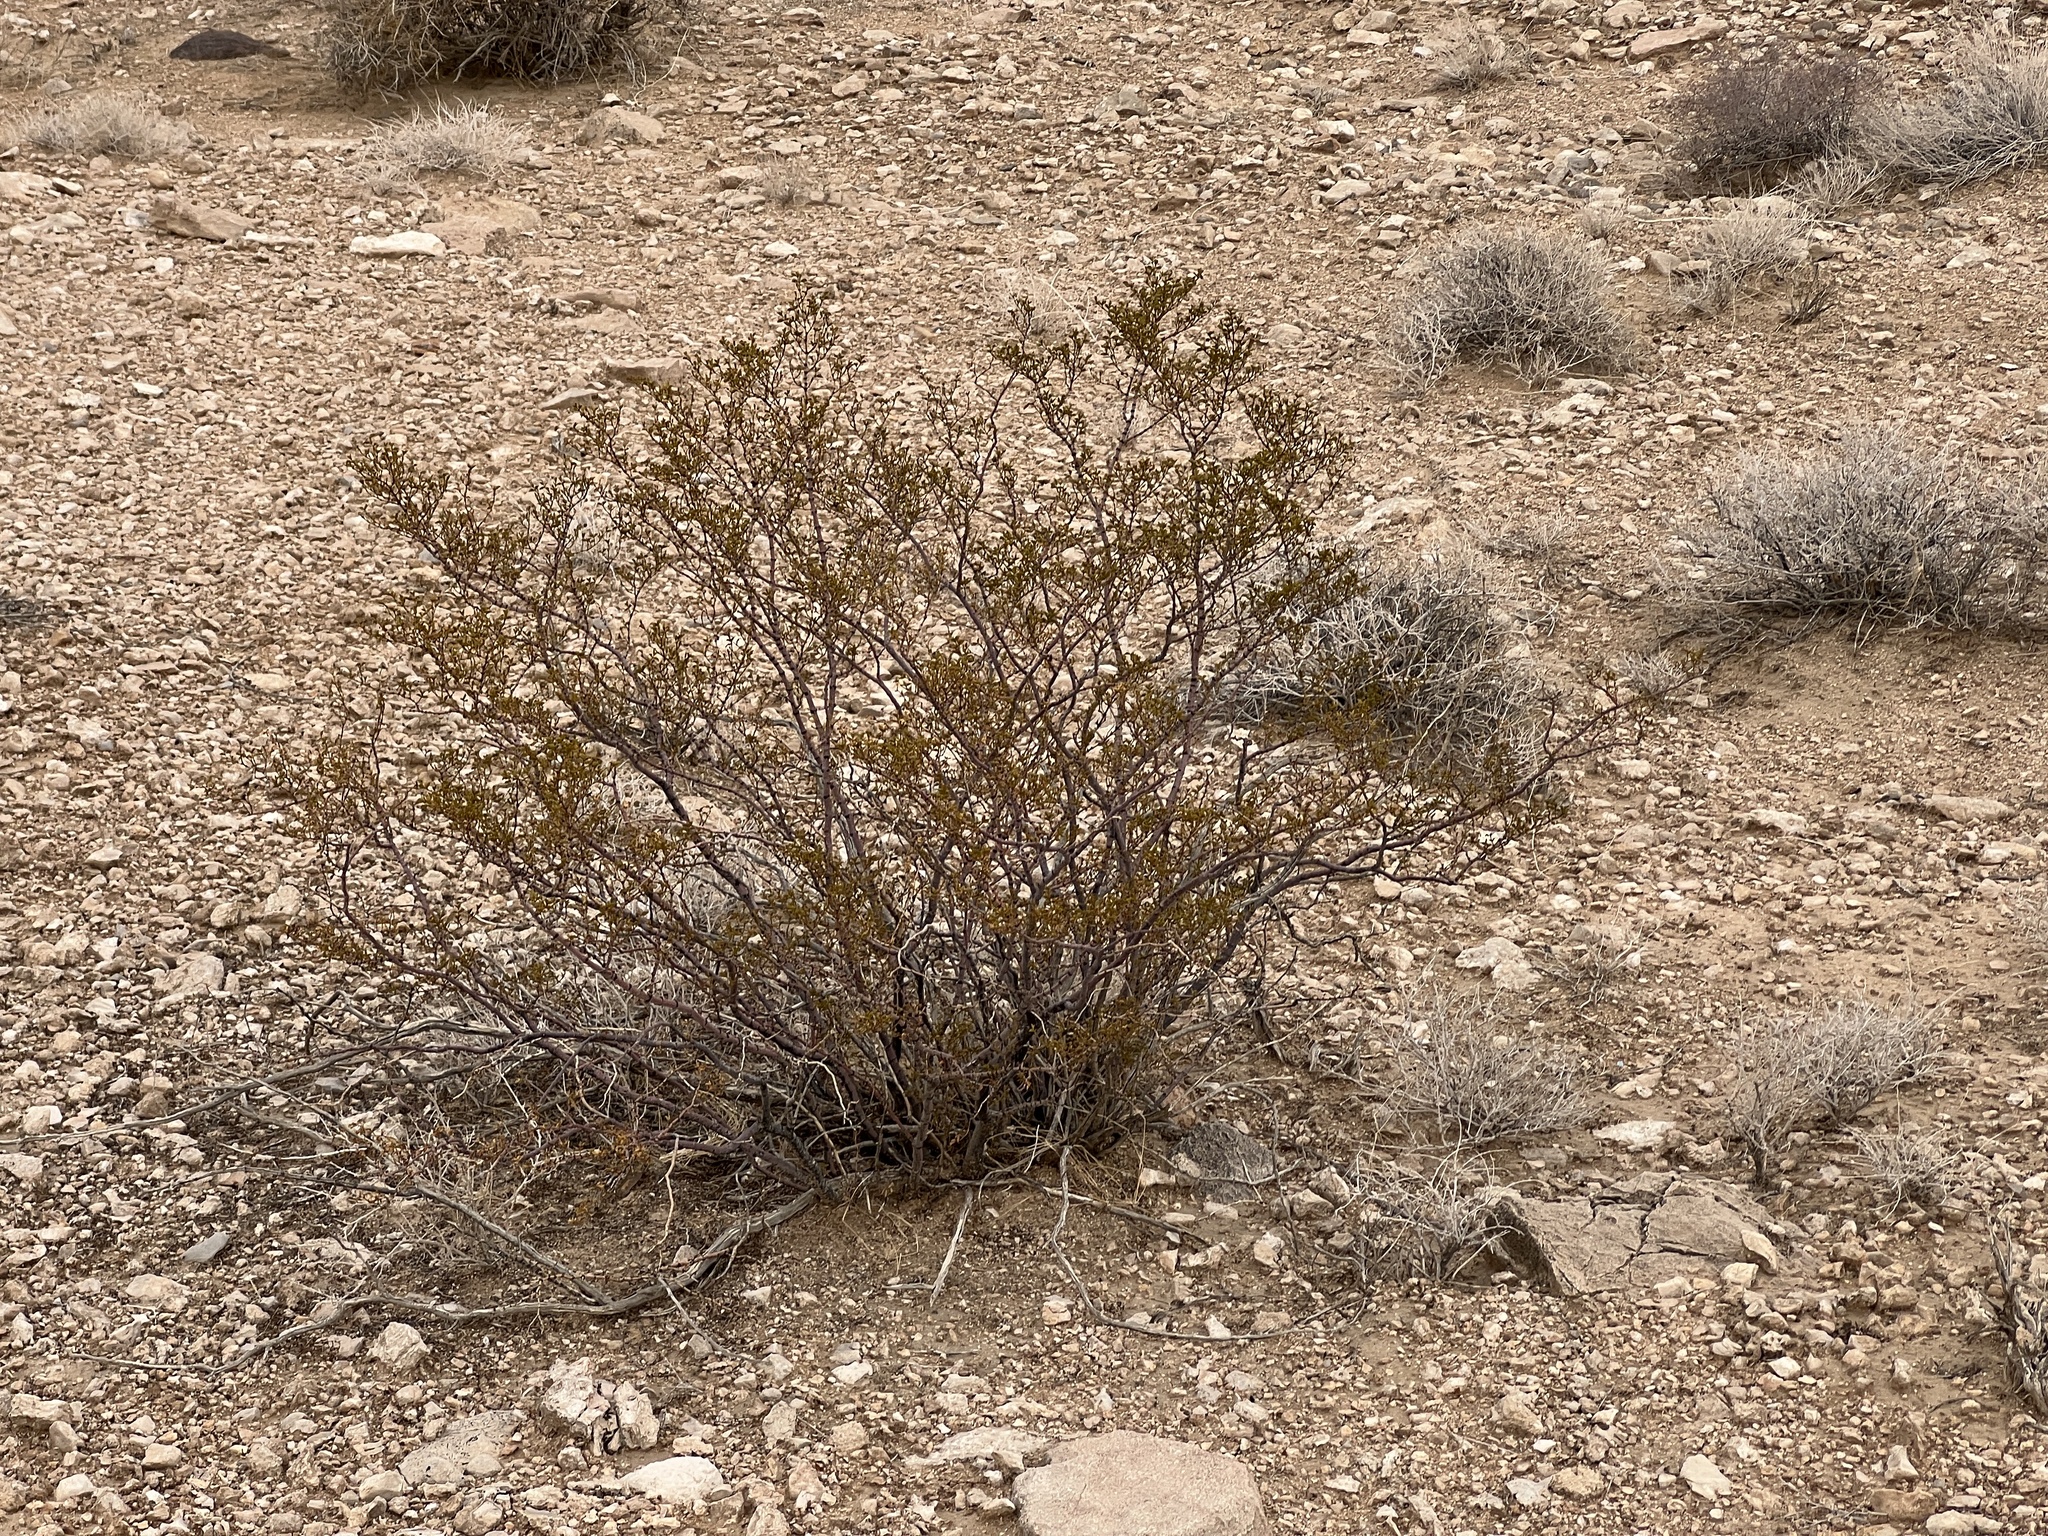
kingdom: Plantae
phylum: Tracheophyta
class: Magnoliopsida
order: Zygophyllales
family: Zygophyllaceae
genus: Larrea
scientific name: Larrea tridentata
